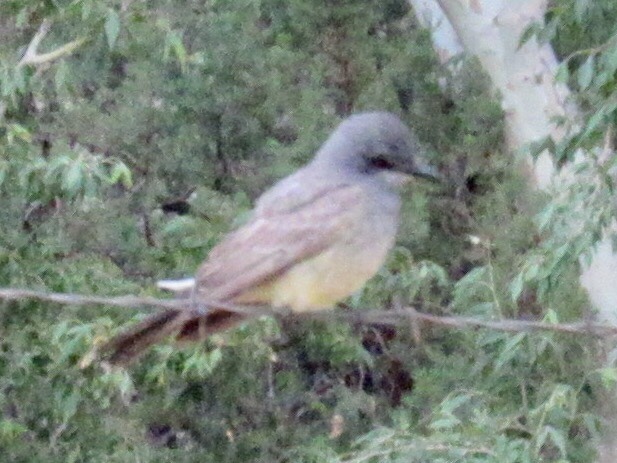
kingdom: Animalia
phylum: Chordata
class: Aves
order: Passeriformes
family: Tyrannidae
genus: Tyrannus
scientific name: Tyrannus vociferans
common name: Cassin's kingbird
